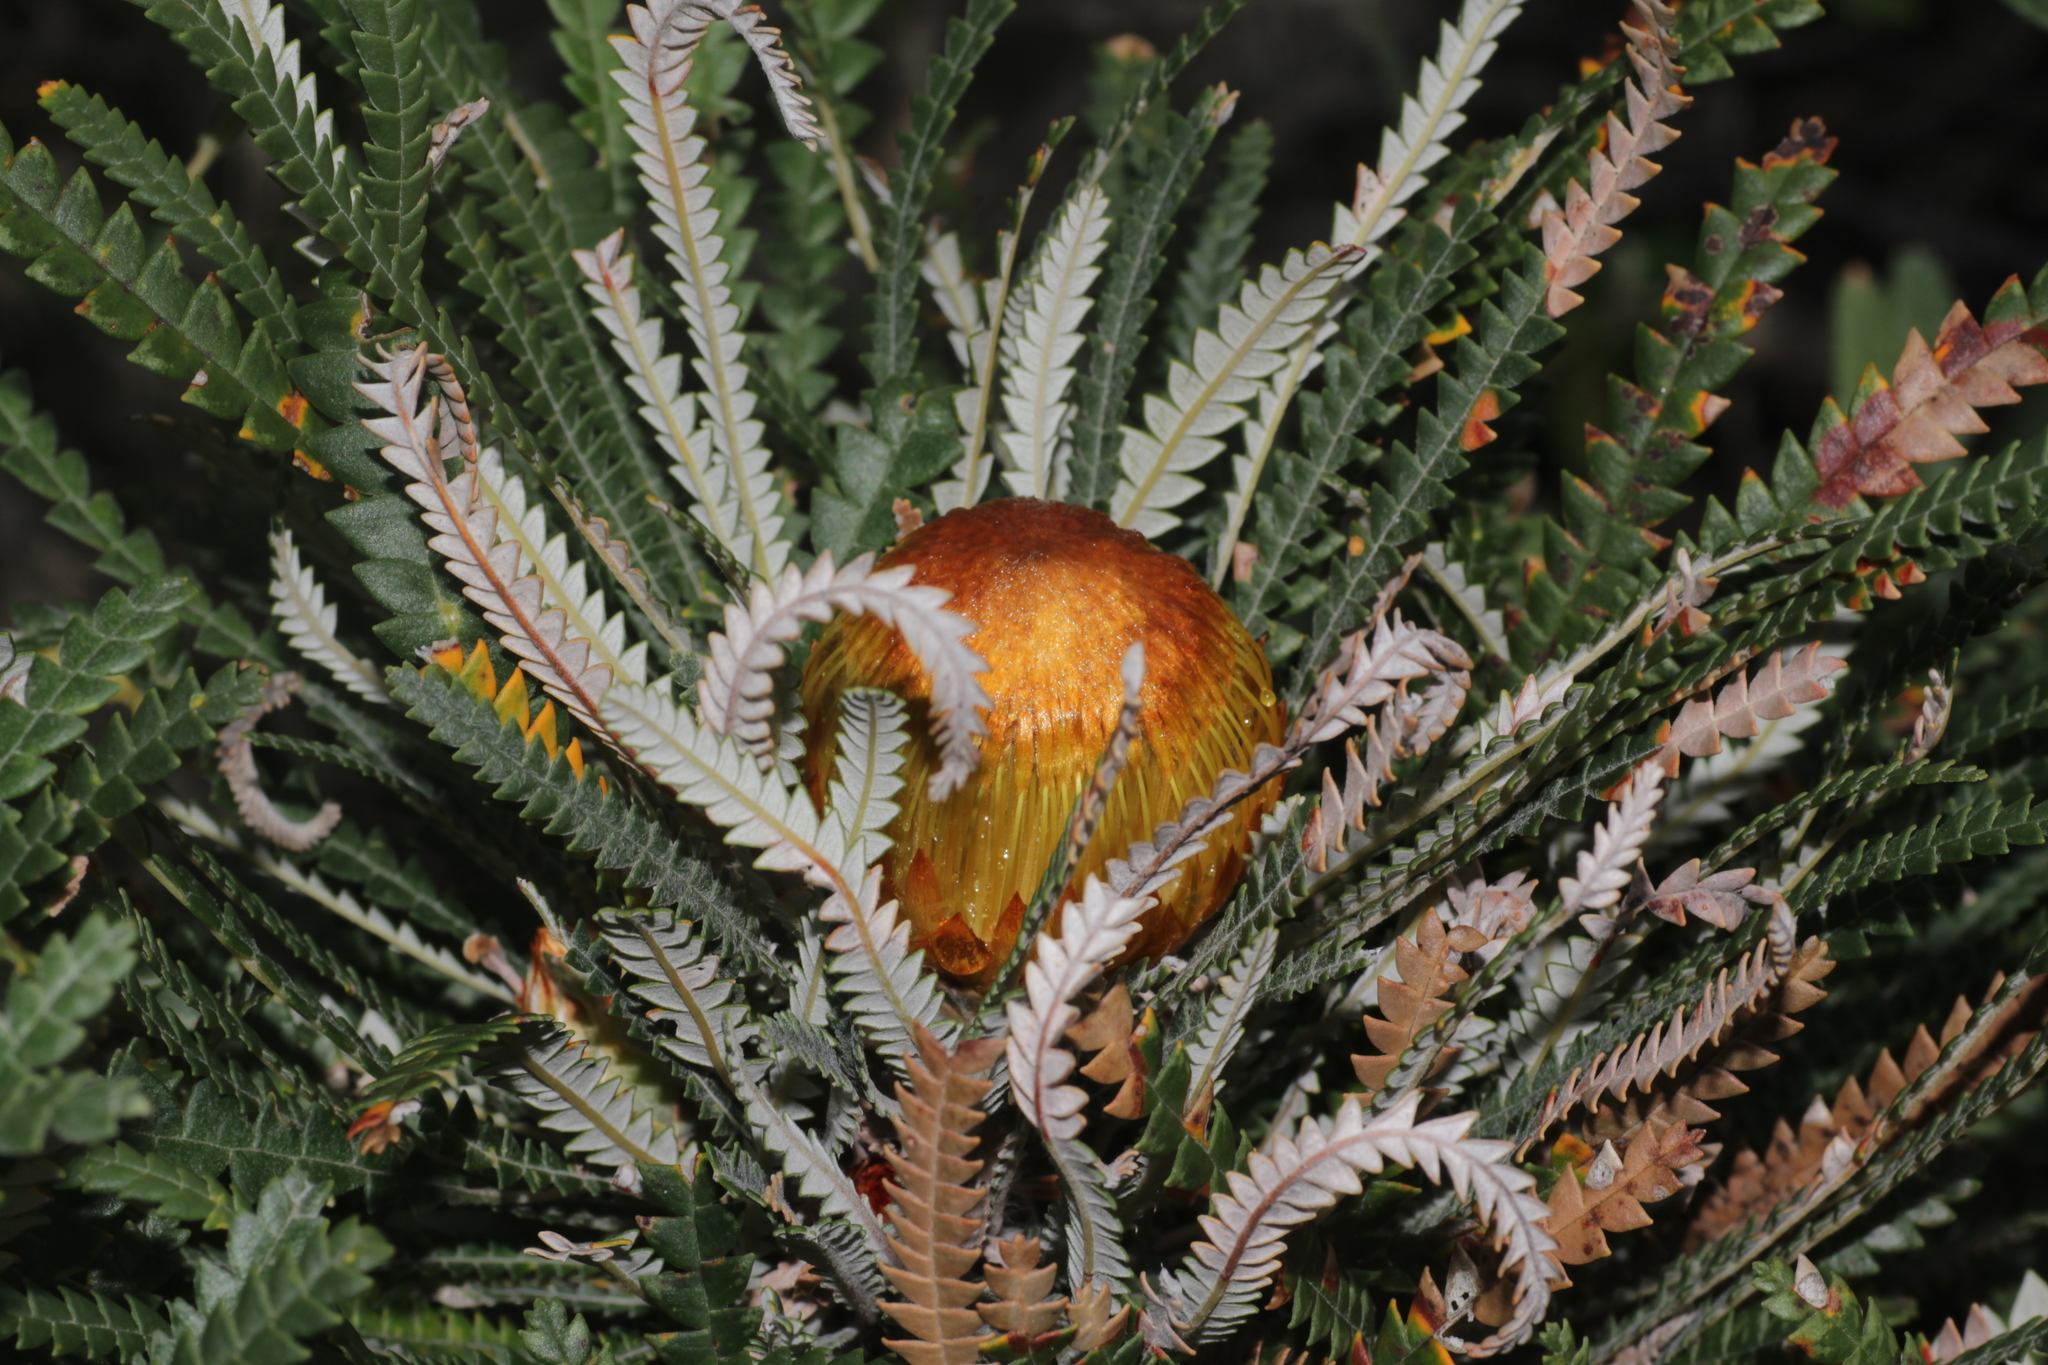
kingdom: Plantae
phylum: Tracheophyta
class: Magnoliopsida
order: Proteales
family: Proteaceae
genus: Banksia
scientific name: Banksia formosa
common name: Showy dryandra
